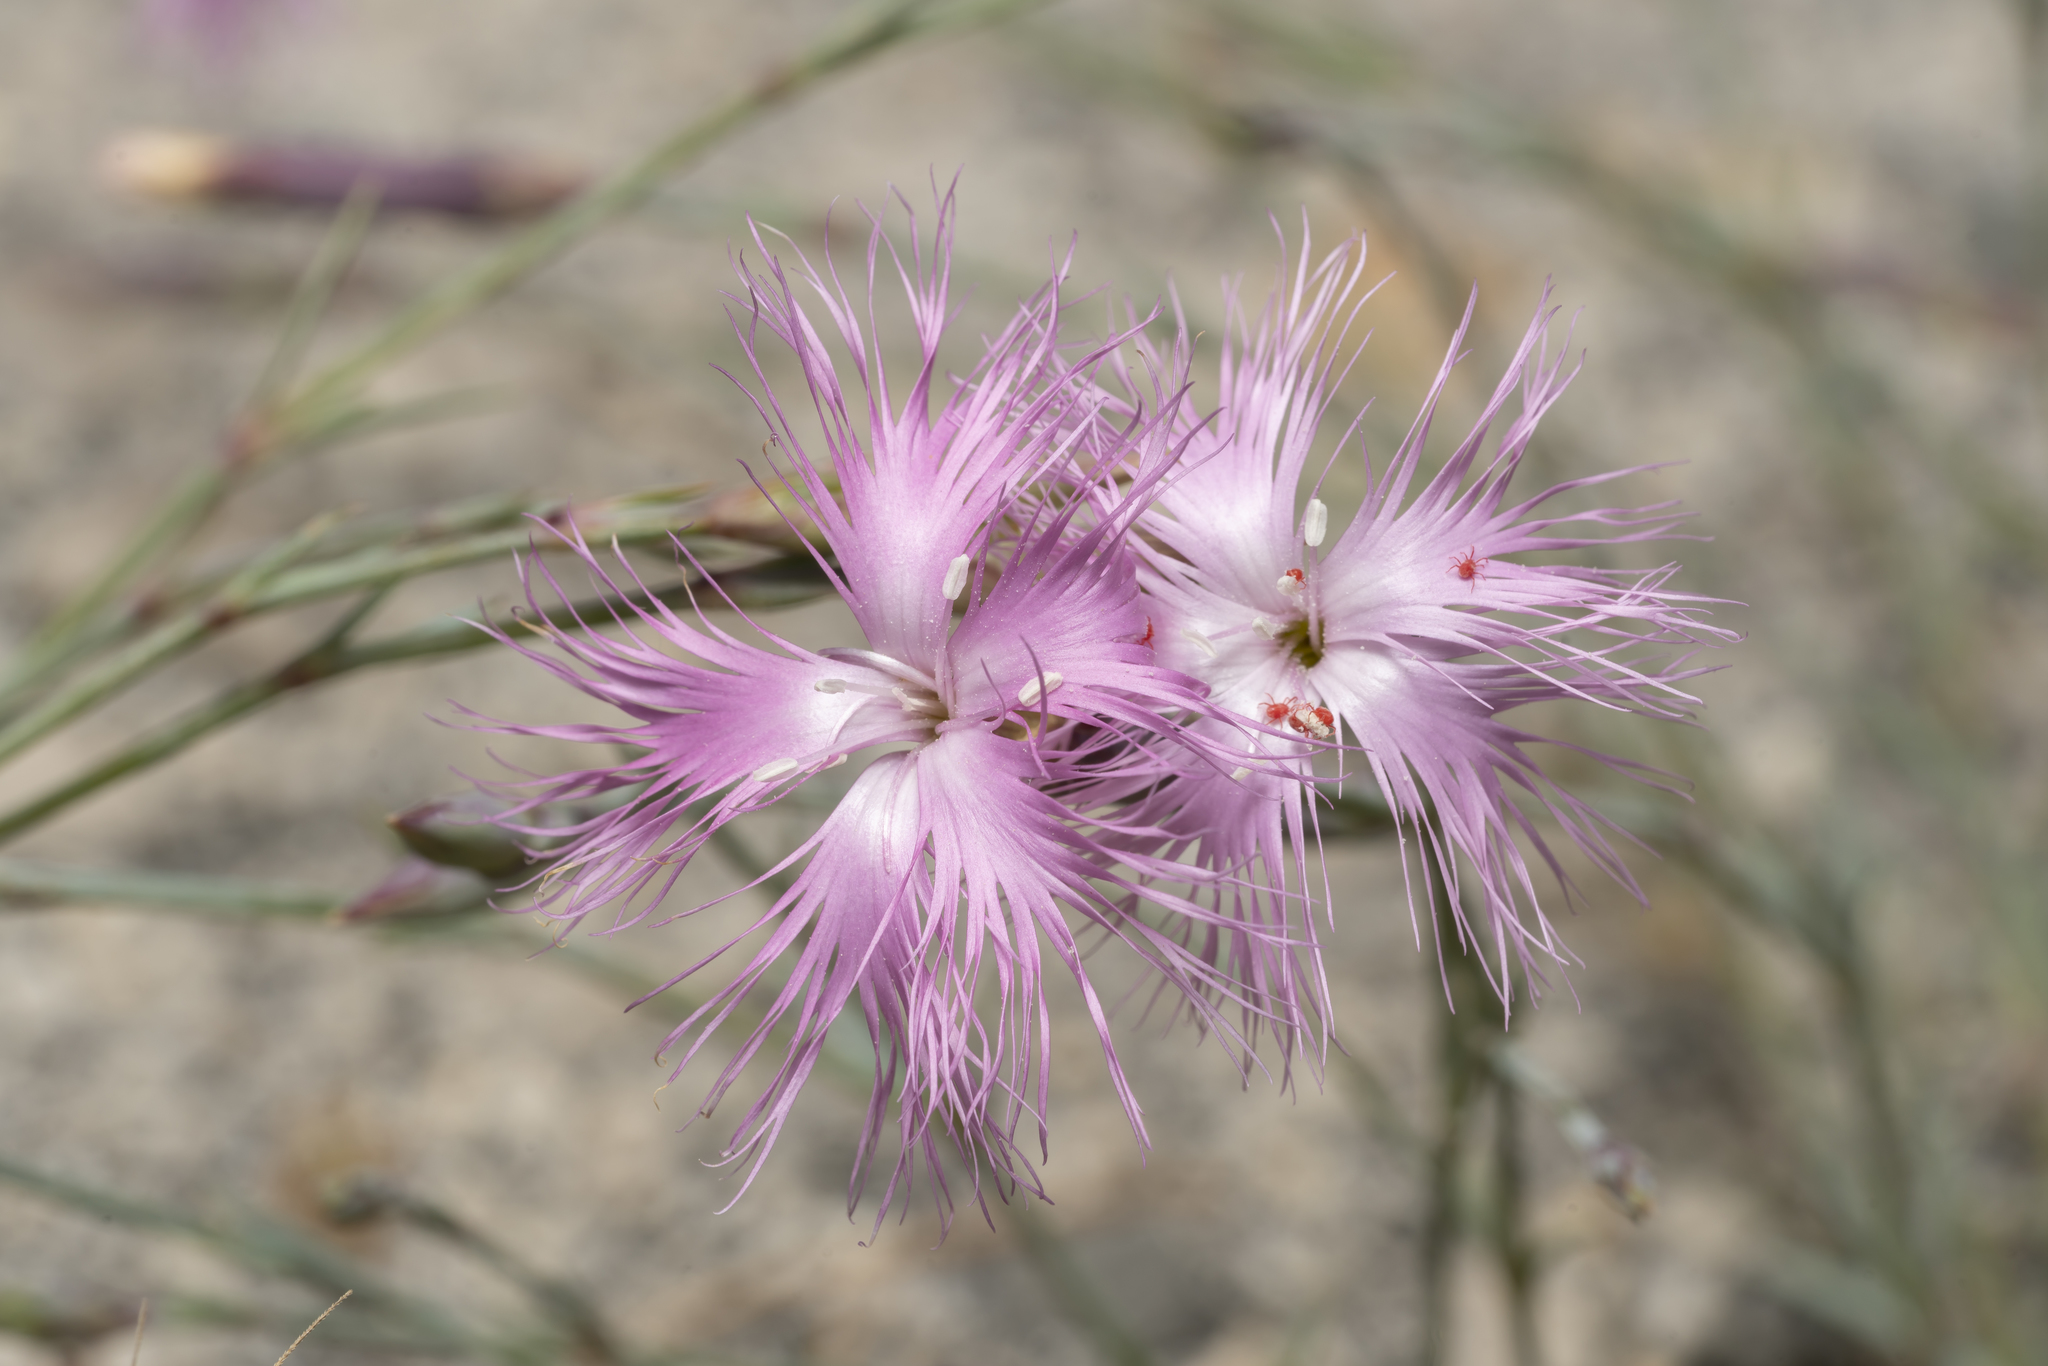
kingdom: Plantae
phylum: Tracheophyta
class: Magnoliopsida
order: Caryophyllales
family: Caryophyllaceae
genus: Dianthus
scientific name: Dianthus crinitus
